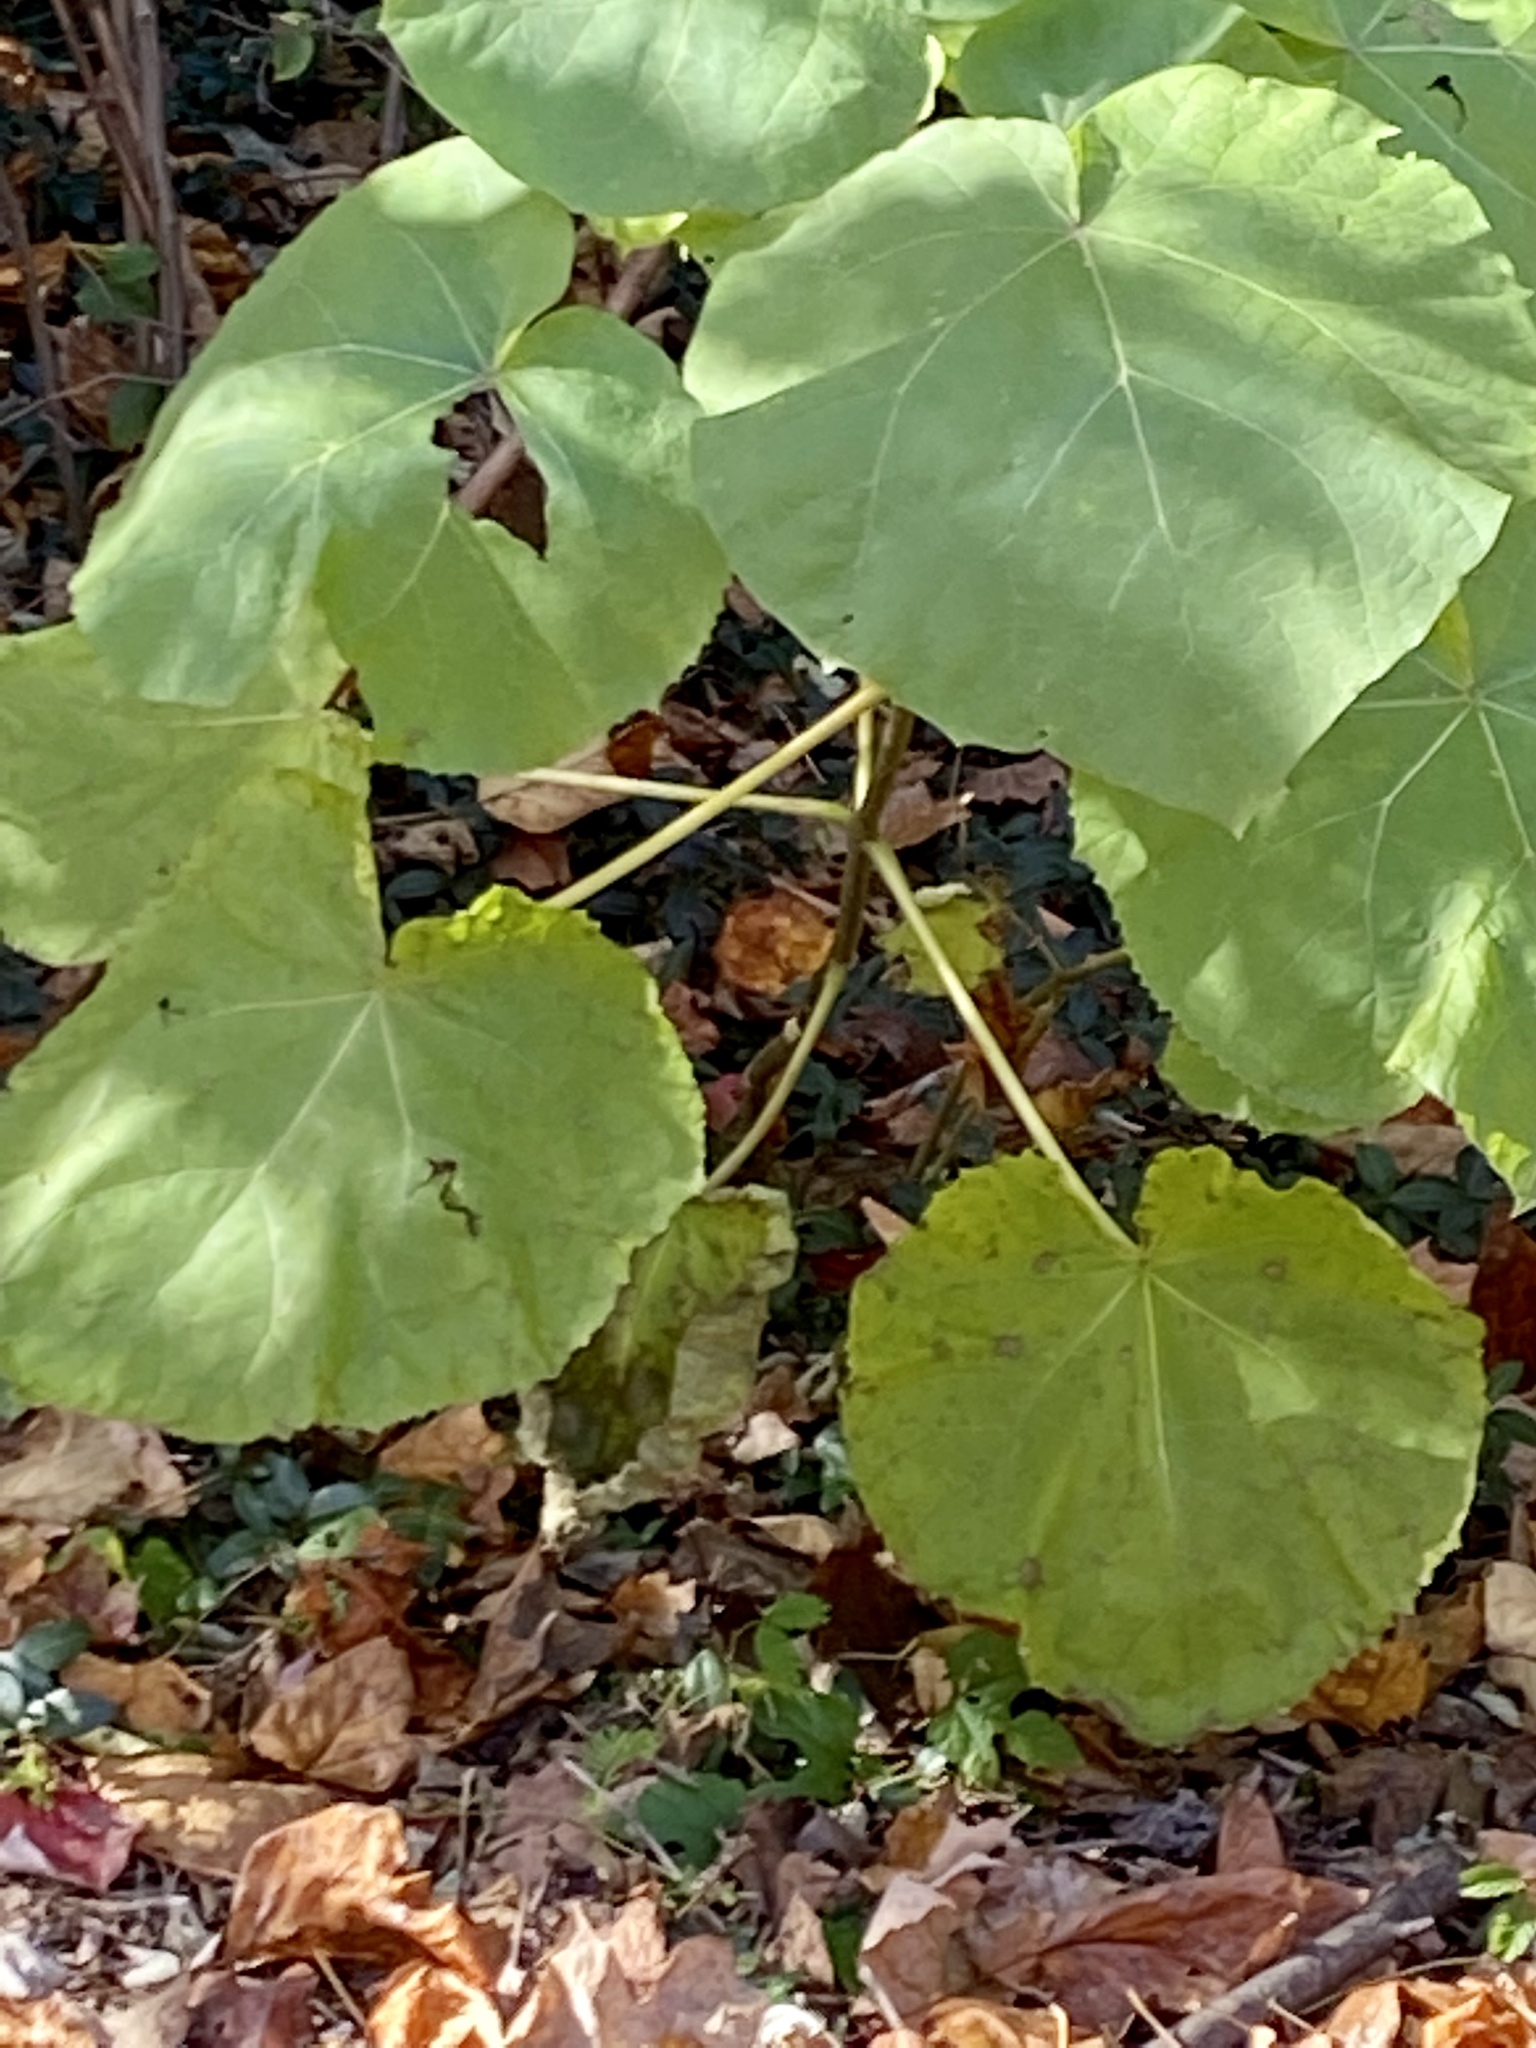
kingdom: Plantae
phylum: Tracheophyta
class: Magnoliopsida
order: Lamiales
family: Paulowniaceae
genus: Paulownia
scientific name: Paulownia tomentosa
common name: Foxglove-tree
